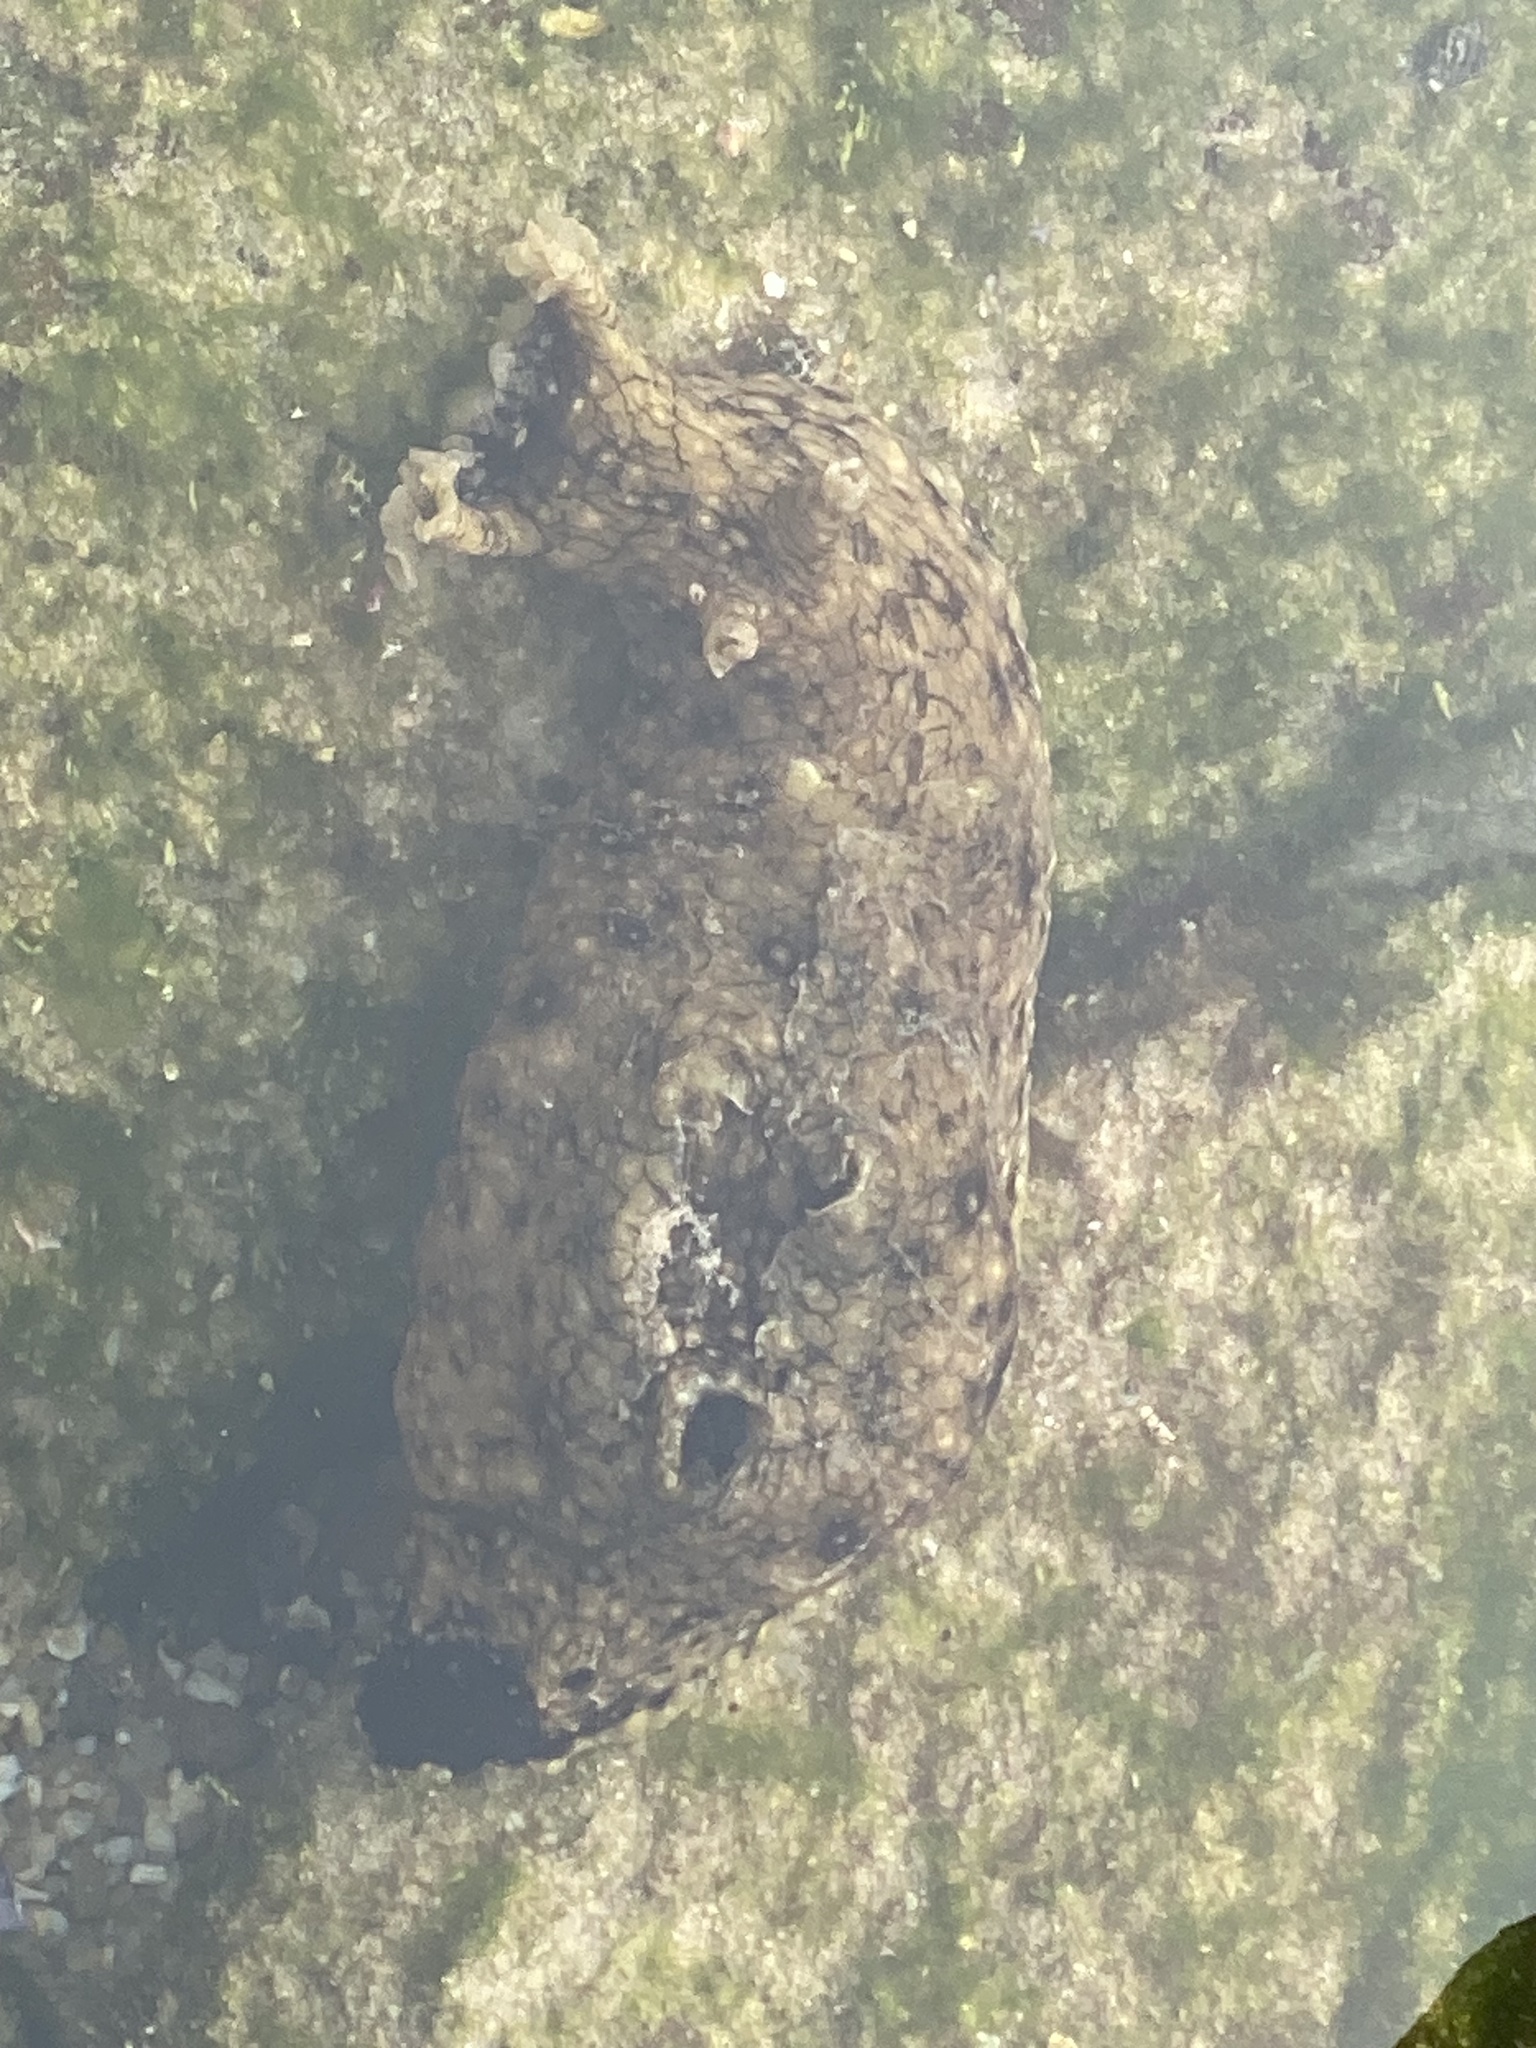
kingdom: Animalia
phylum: Mollusca
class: Gastropoda
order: Aplysiida
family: Aplysiidae
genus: Aplysia
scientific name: Aplysia argus
